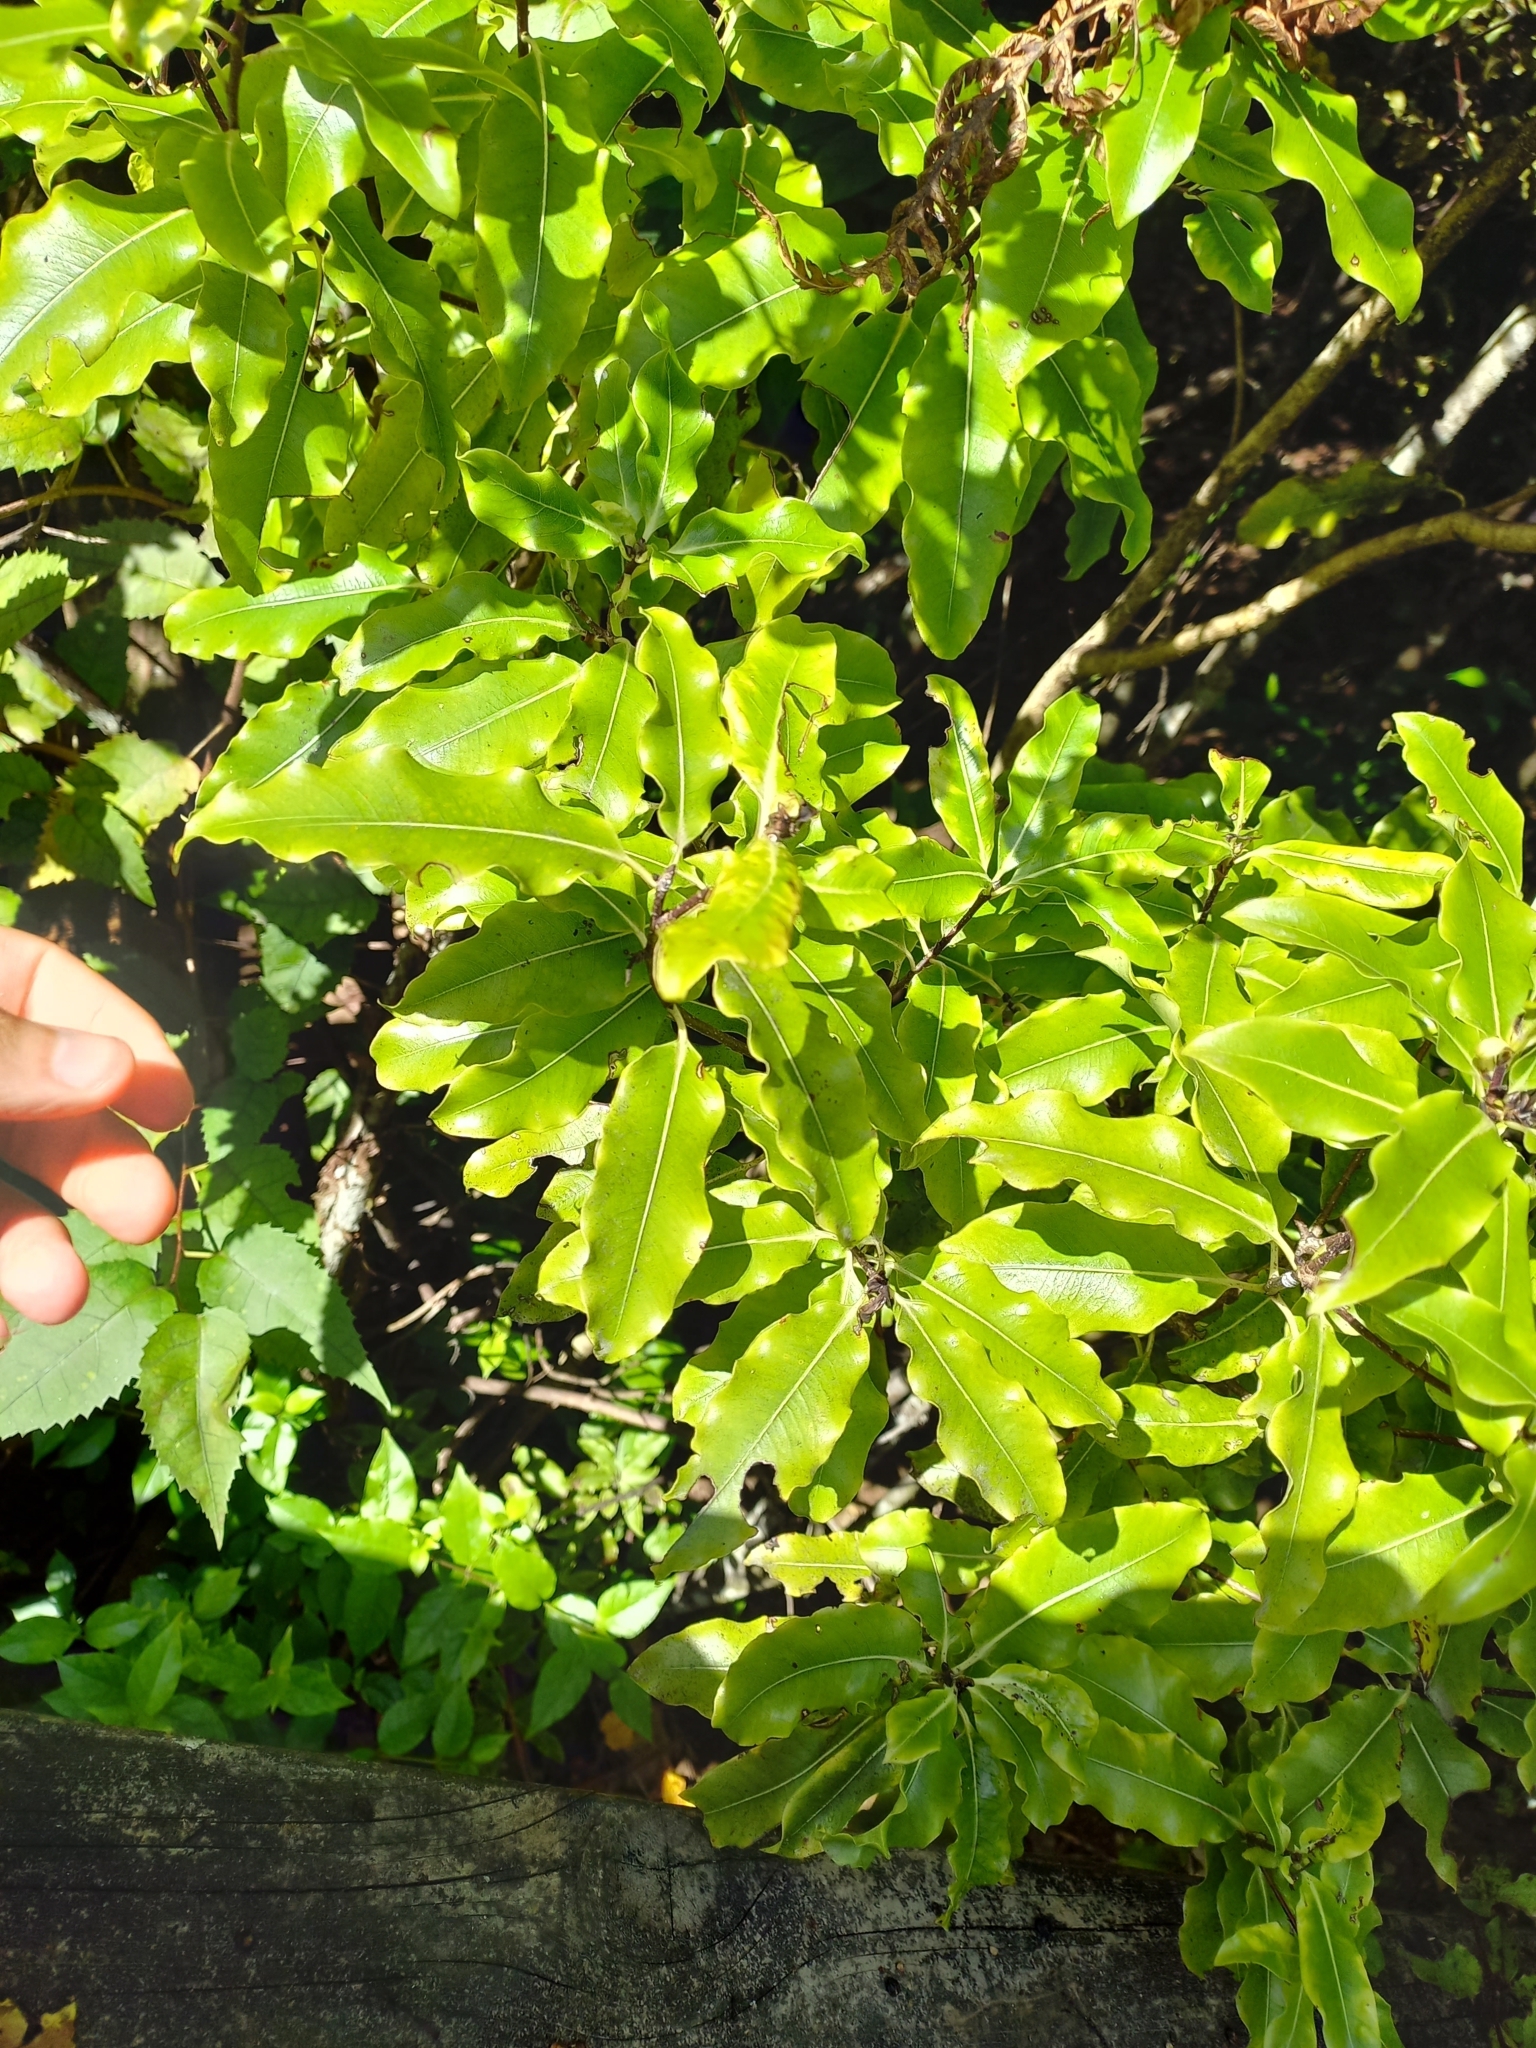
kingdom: Plantae
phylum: Tracheophyta
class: Magnoliopsida
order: Apiales
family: Pittosporaceae
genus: Pittosporum
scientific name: Pittosporum eugenioides
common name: Lemonwood
